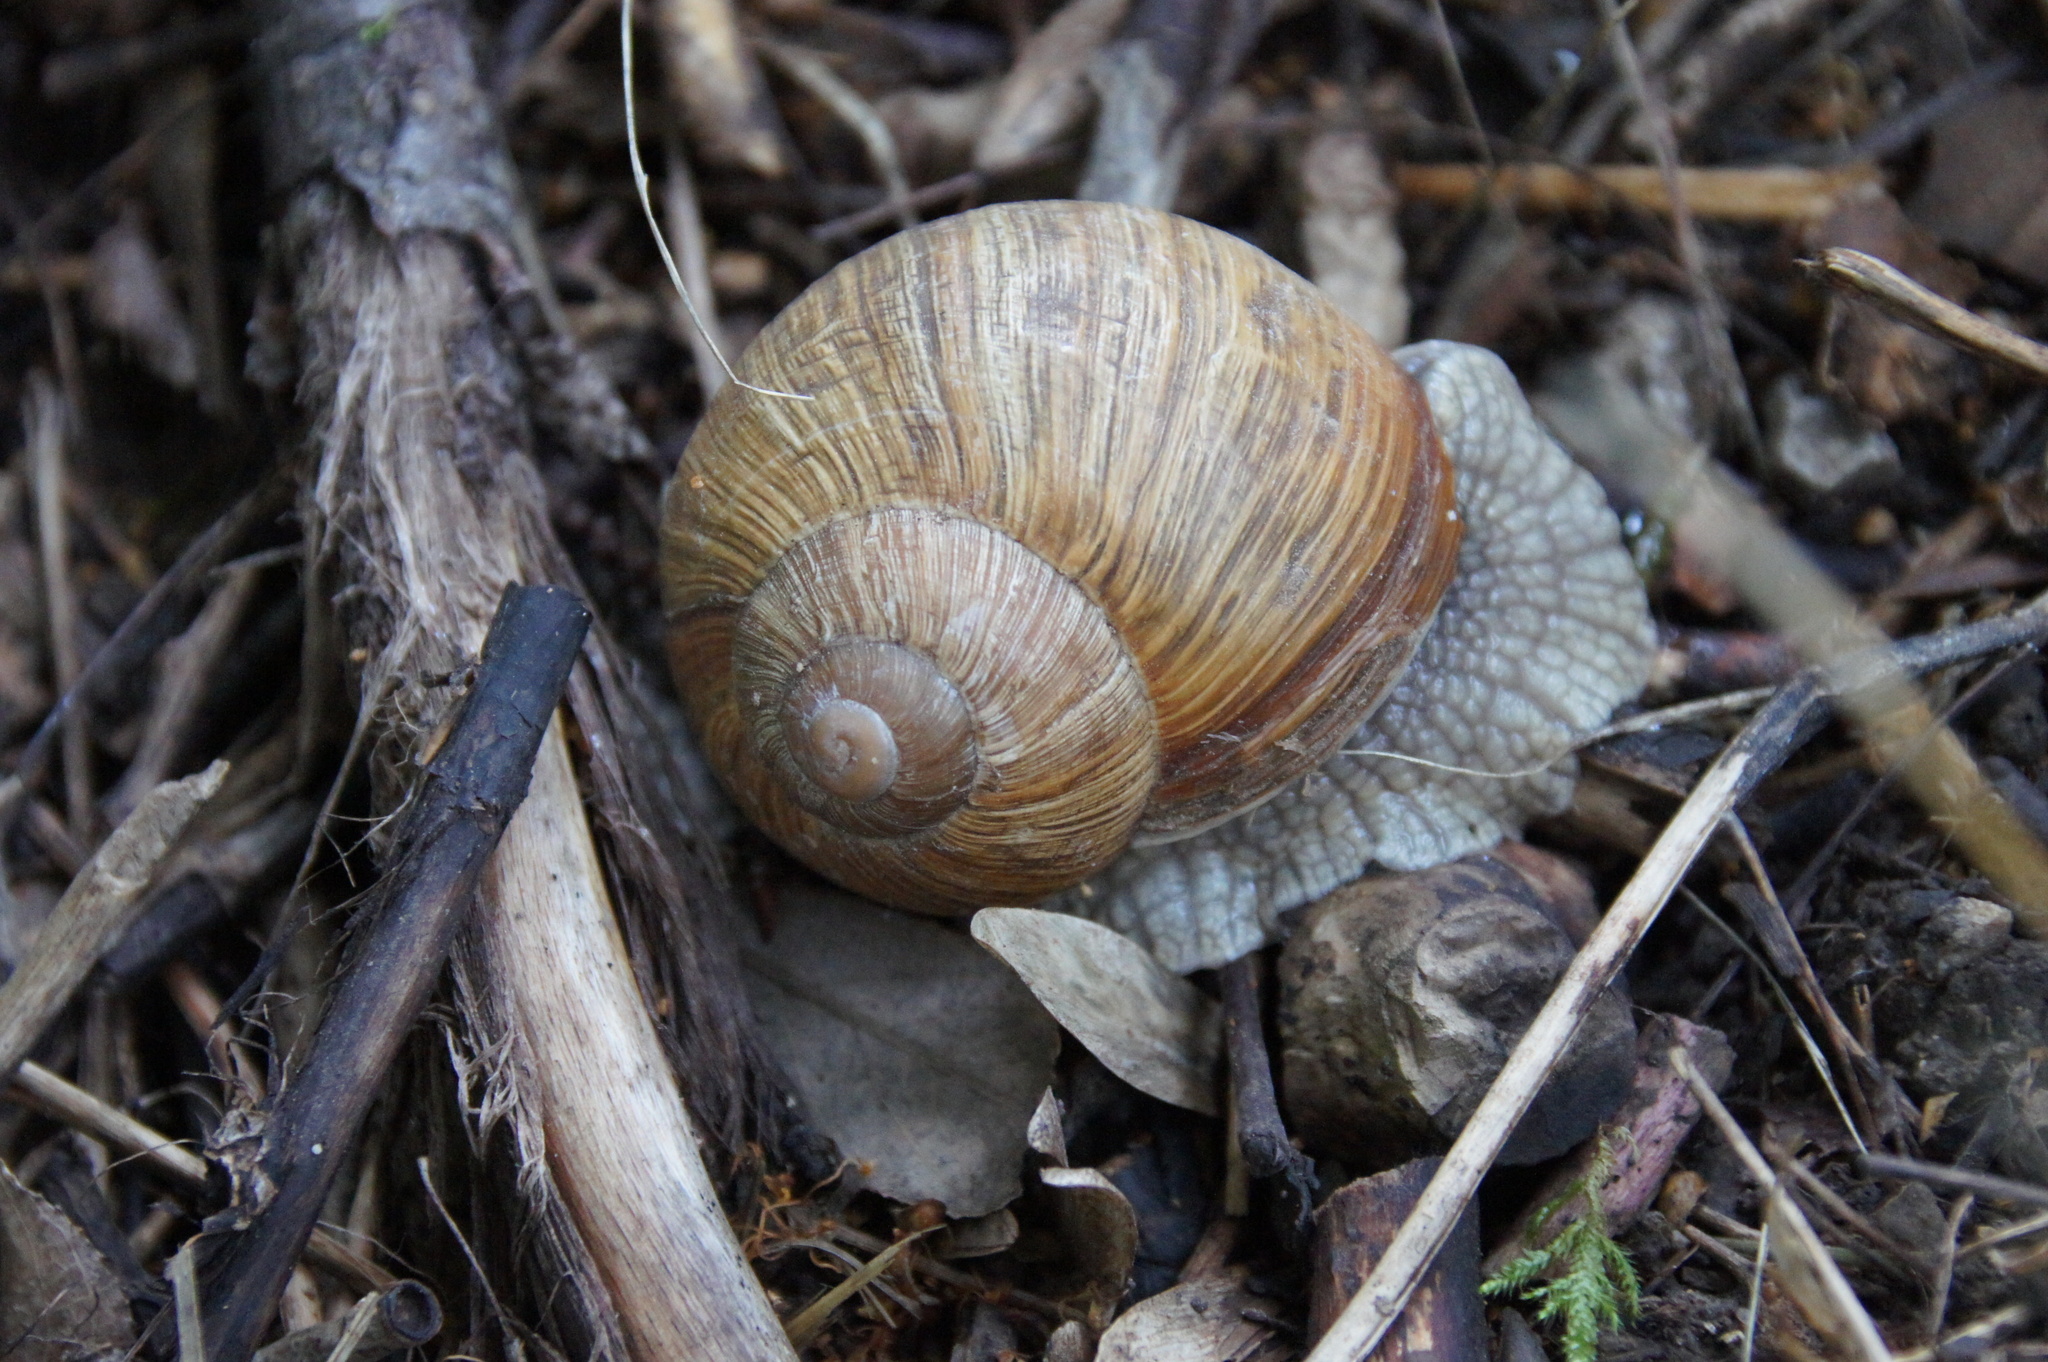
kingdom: Animalia
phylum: Mollusca
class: Gastropoda
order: Stylommatophora
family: Helicidae
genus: Helix
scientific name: Helix pomatia
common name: Roman snail
